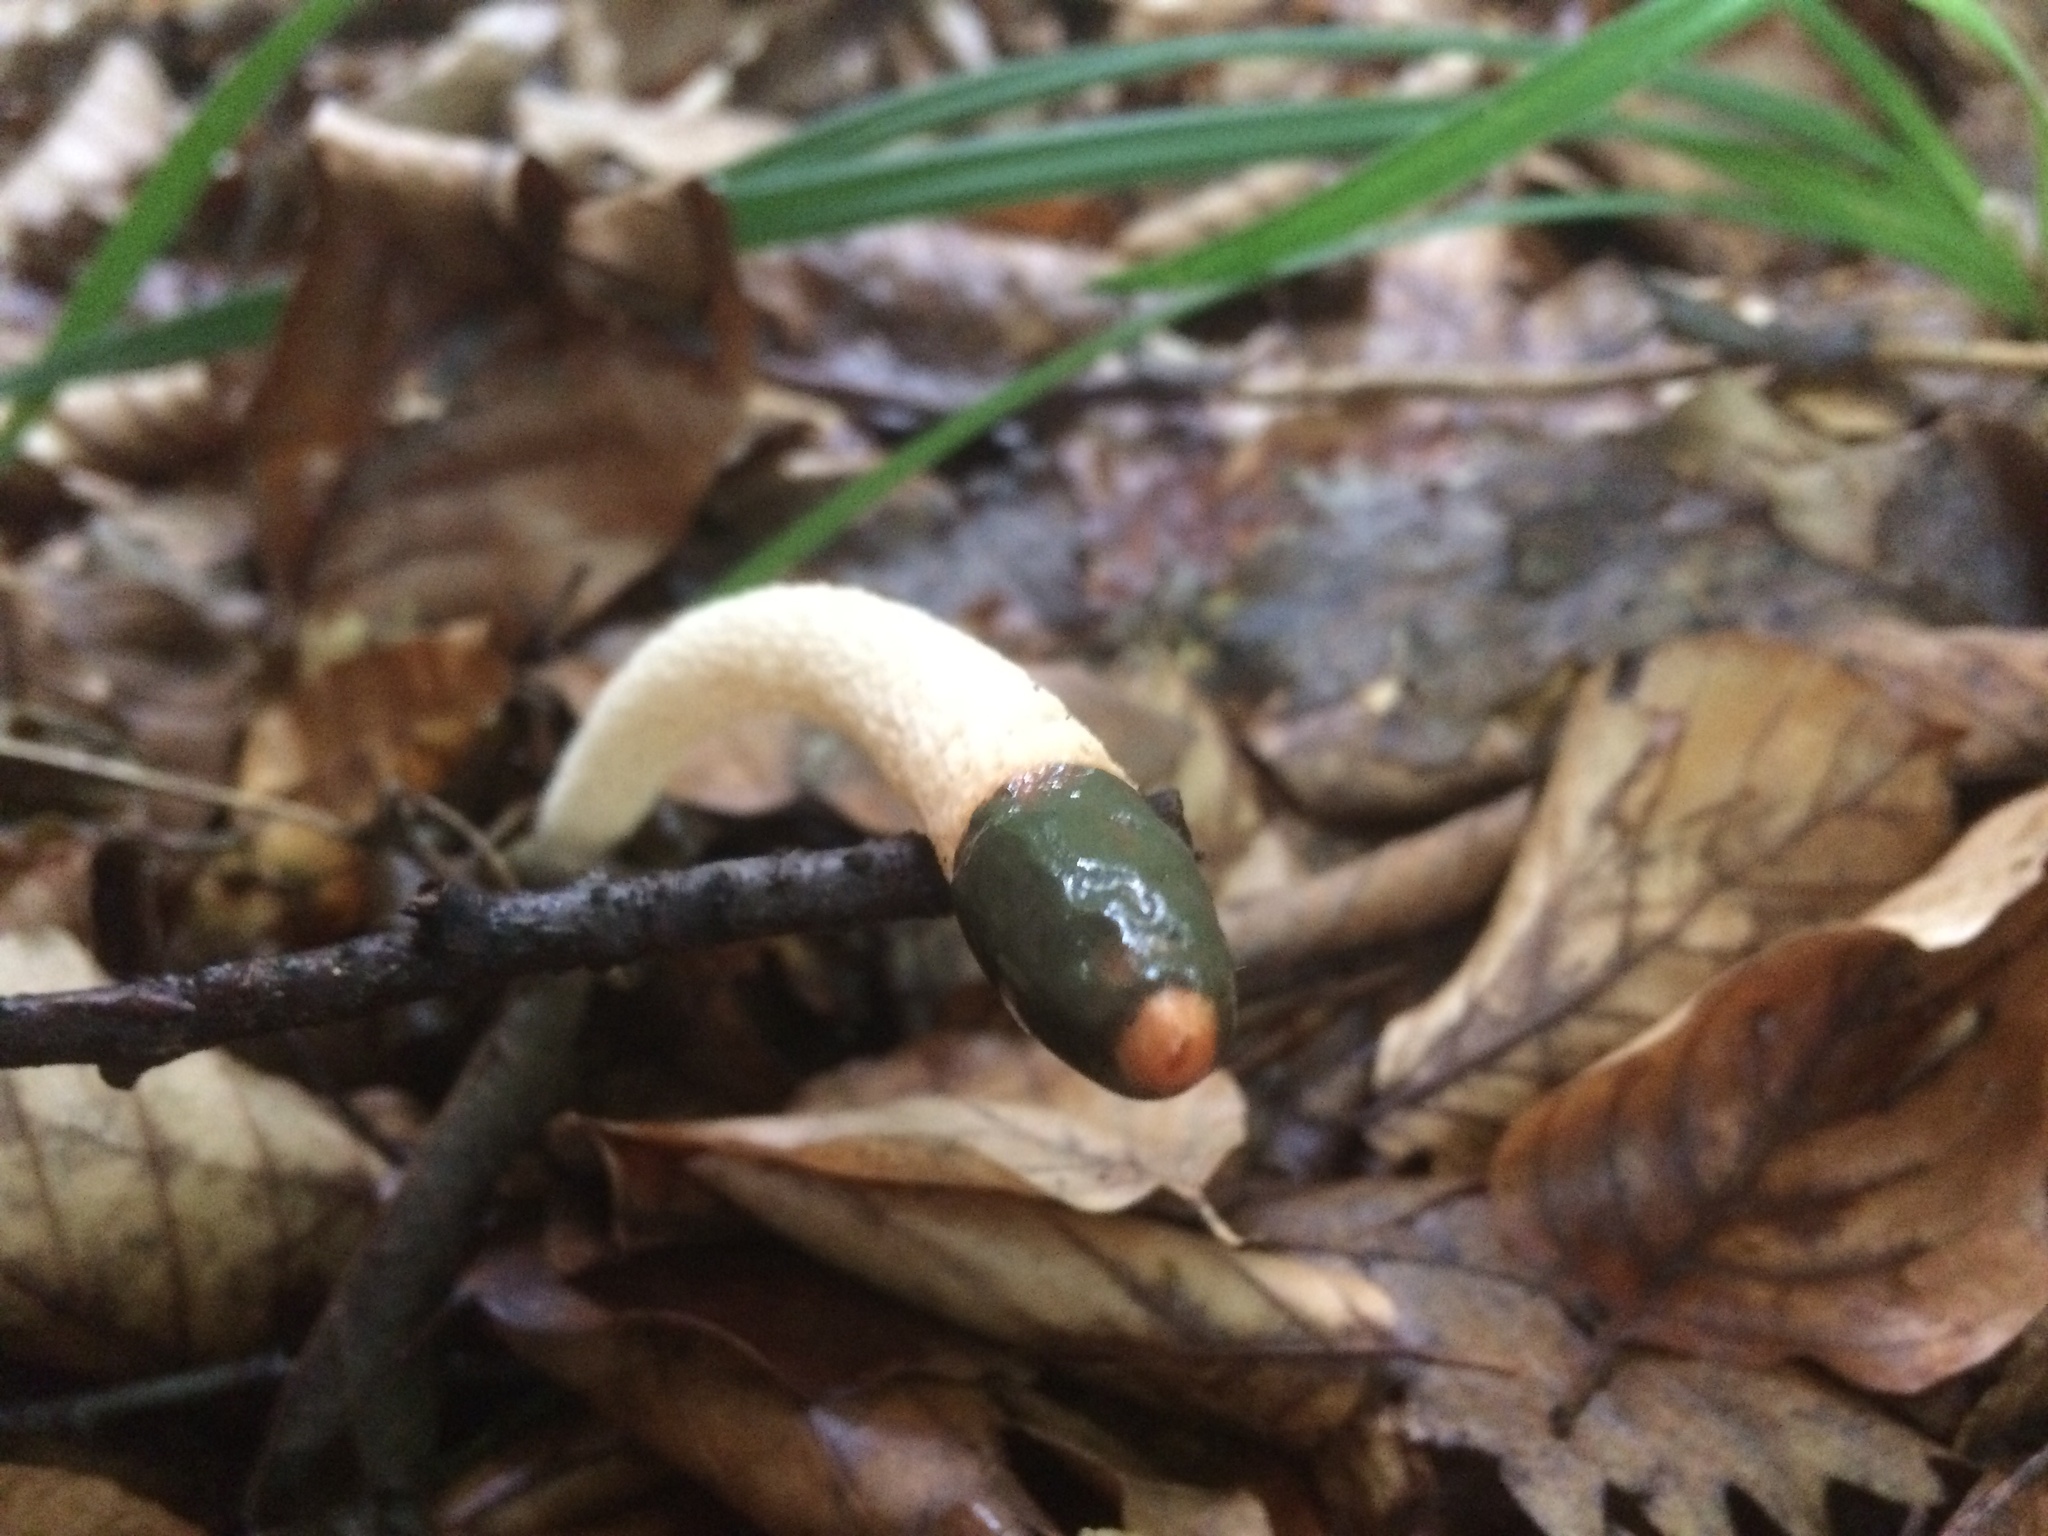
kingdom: Fungi
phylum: Basidiomycota
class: Agaricomycetes
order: Phallales
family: Phallaceae
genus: Mutinus
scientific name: Mutinus caninus
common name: Dog stinkhorn
